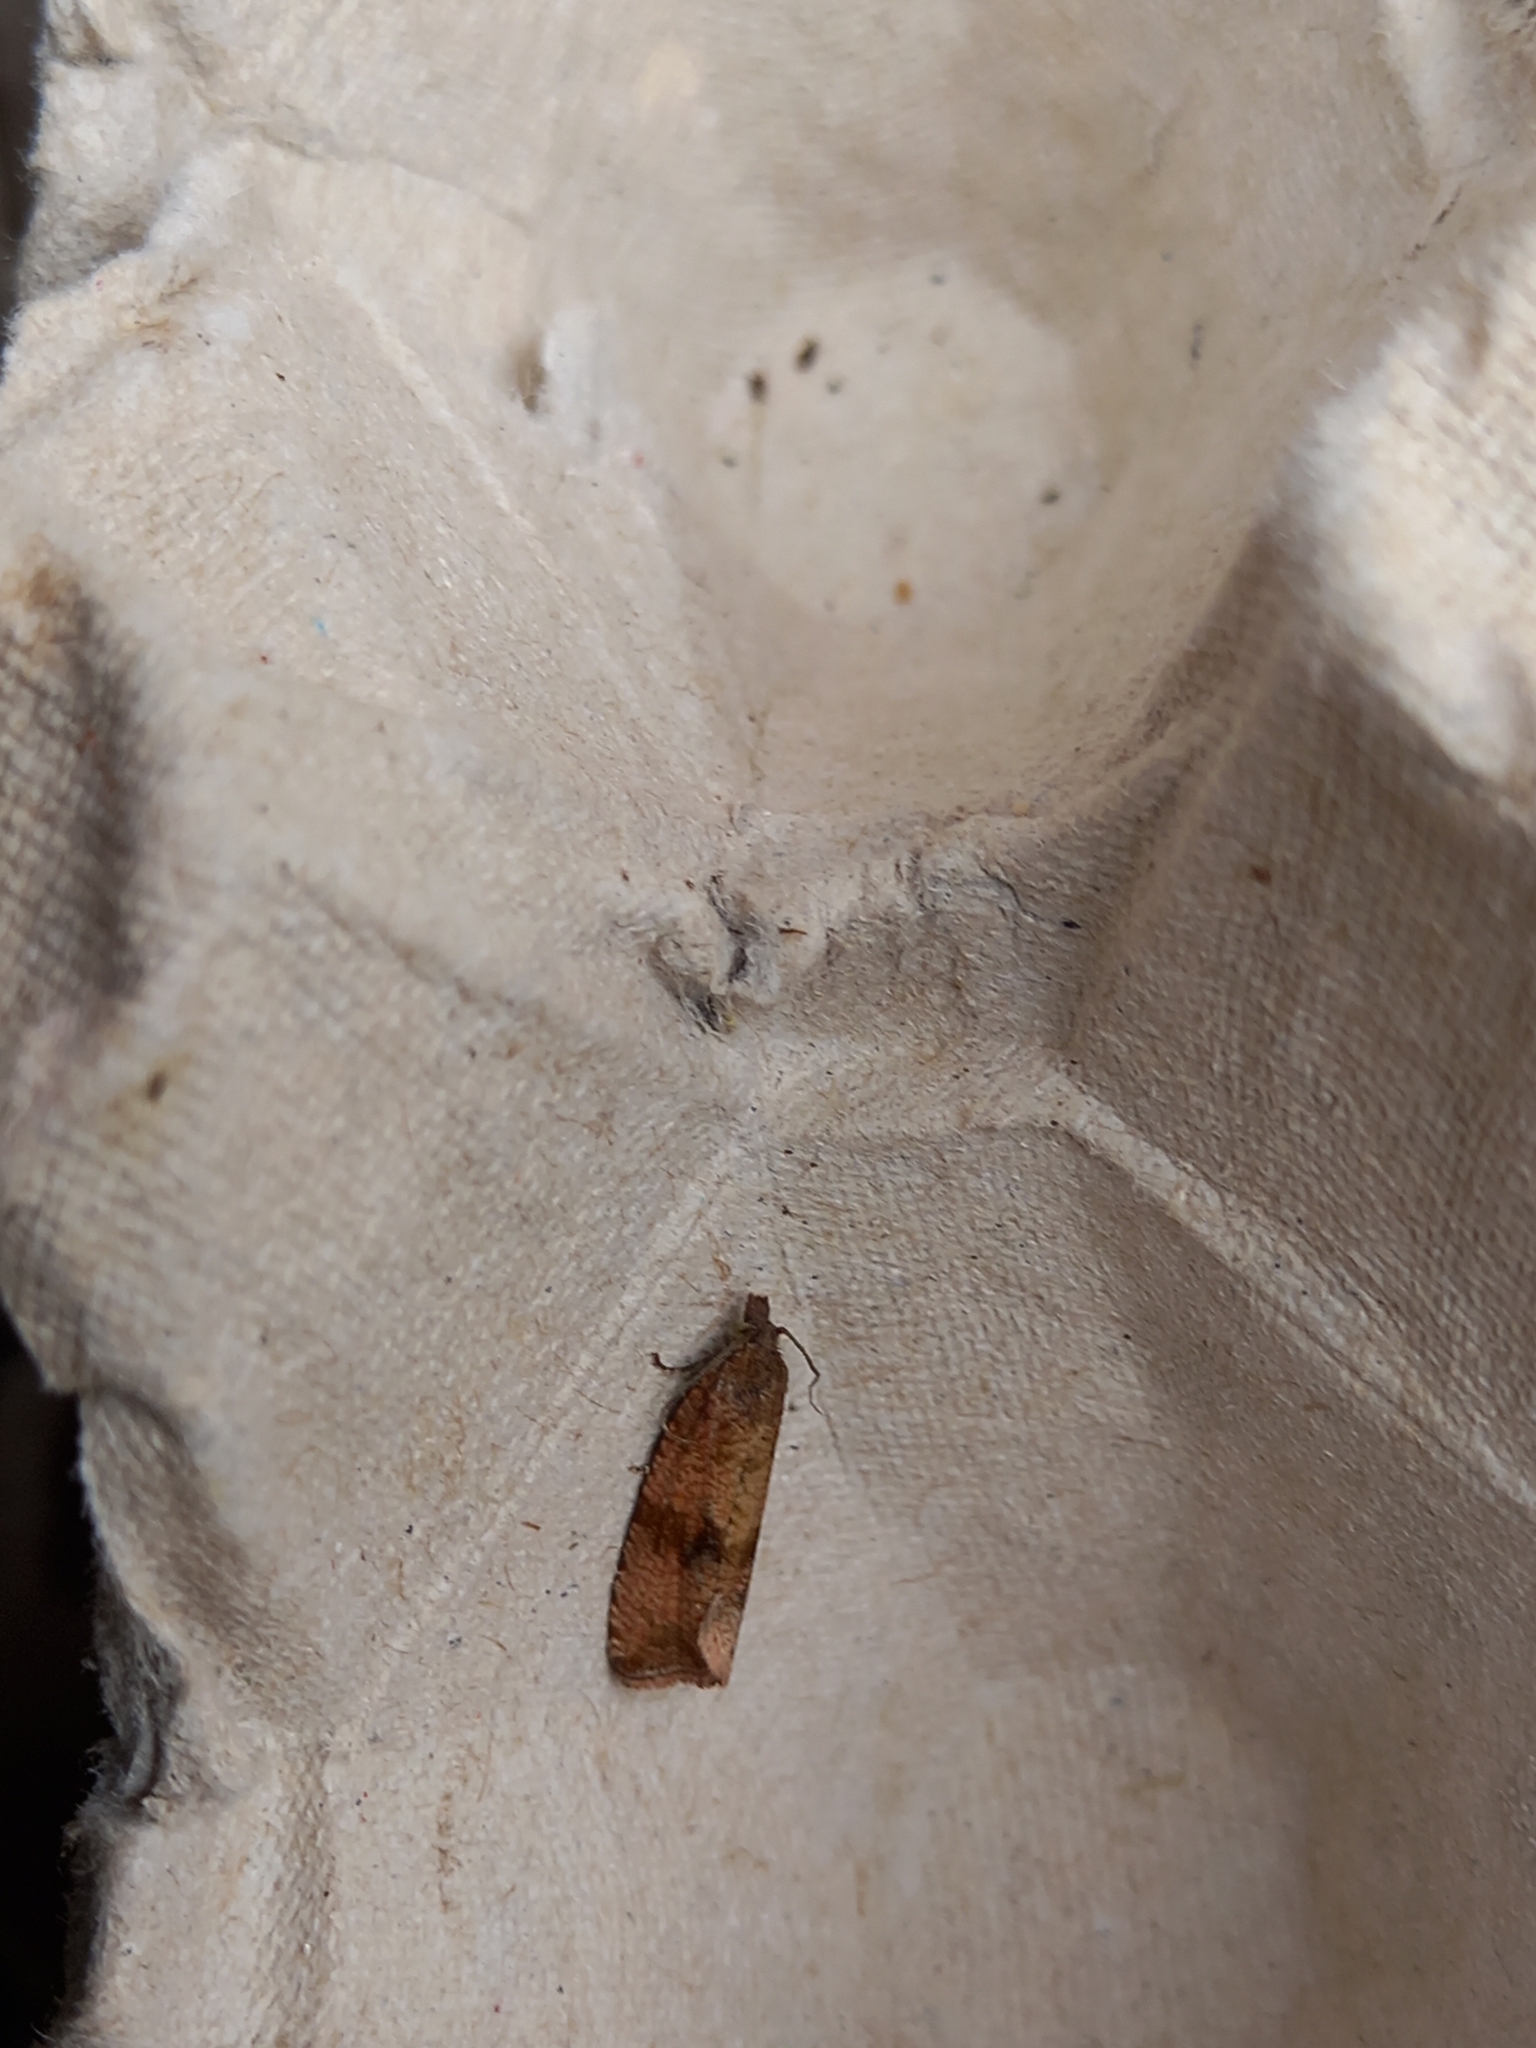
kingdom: Animalia
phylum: Arthropoda
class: Insecta
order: Lepidoptera
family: Tortricidae
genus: Celypha
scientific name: Celypha striana
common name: Barred marble
